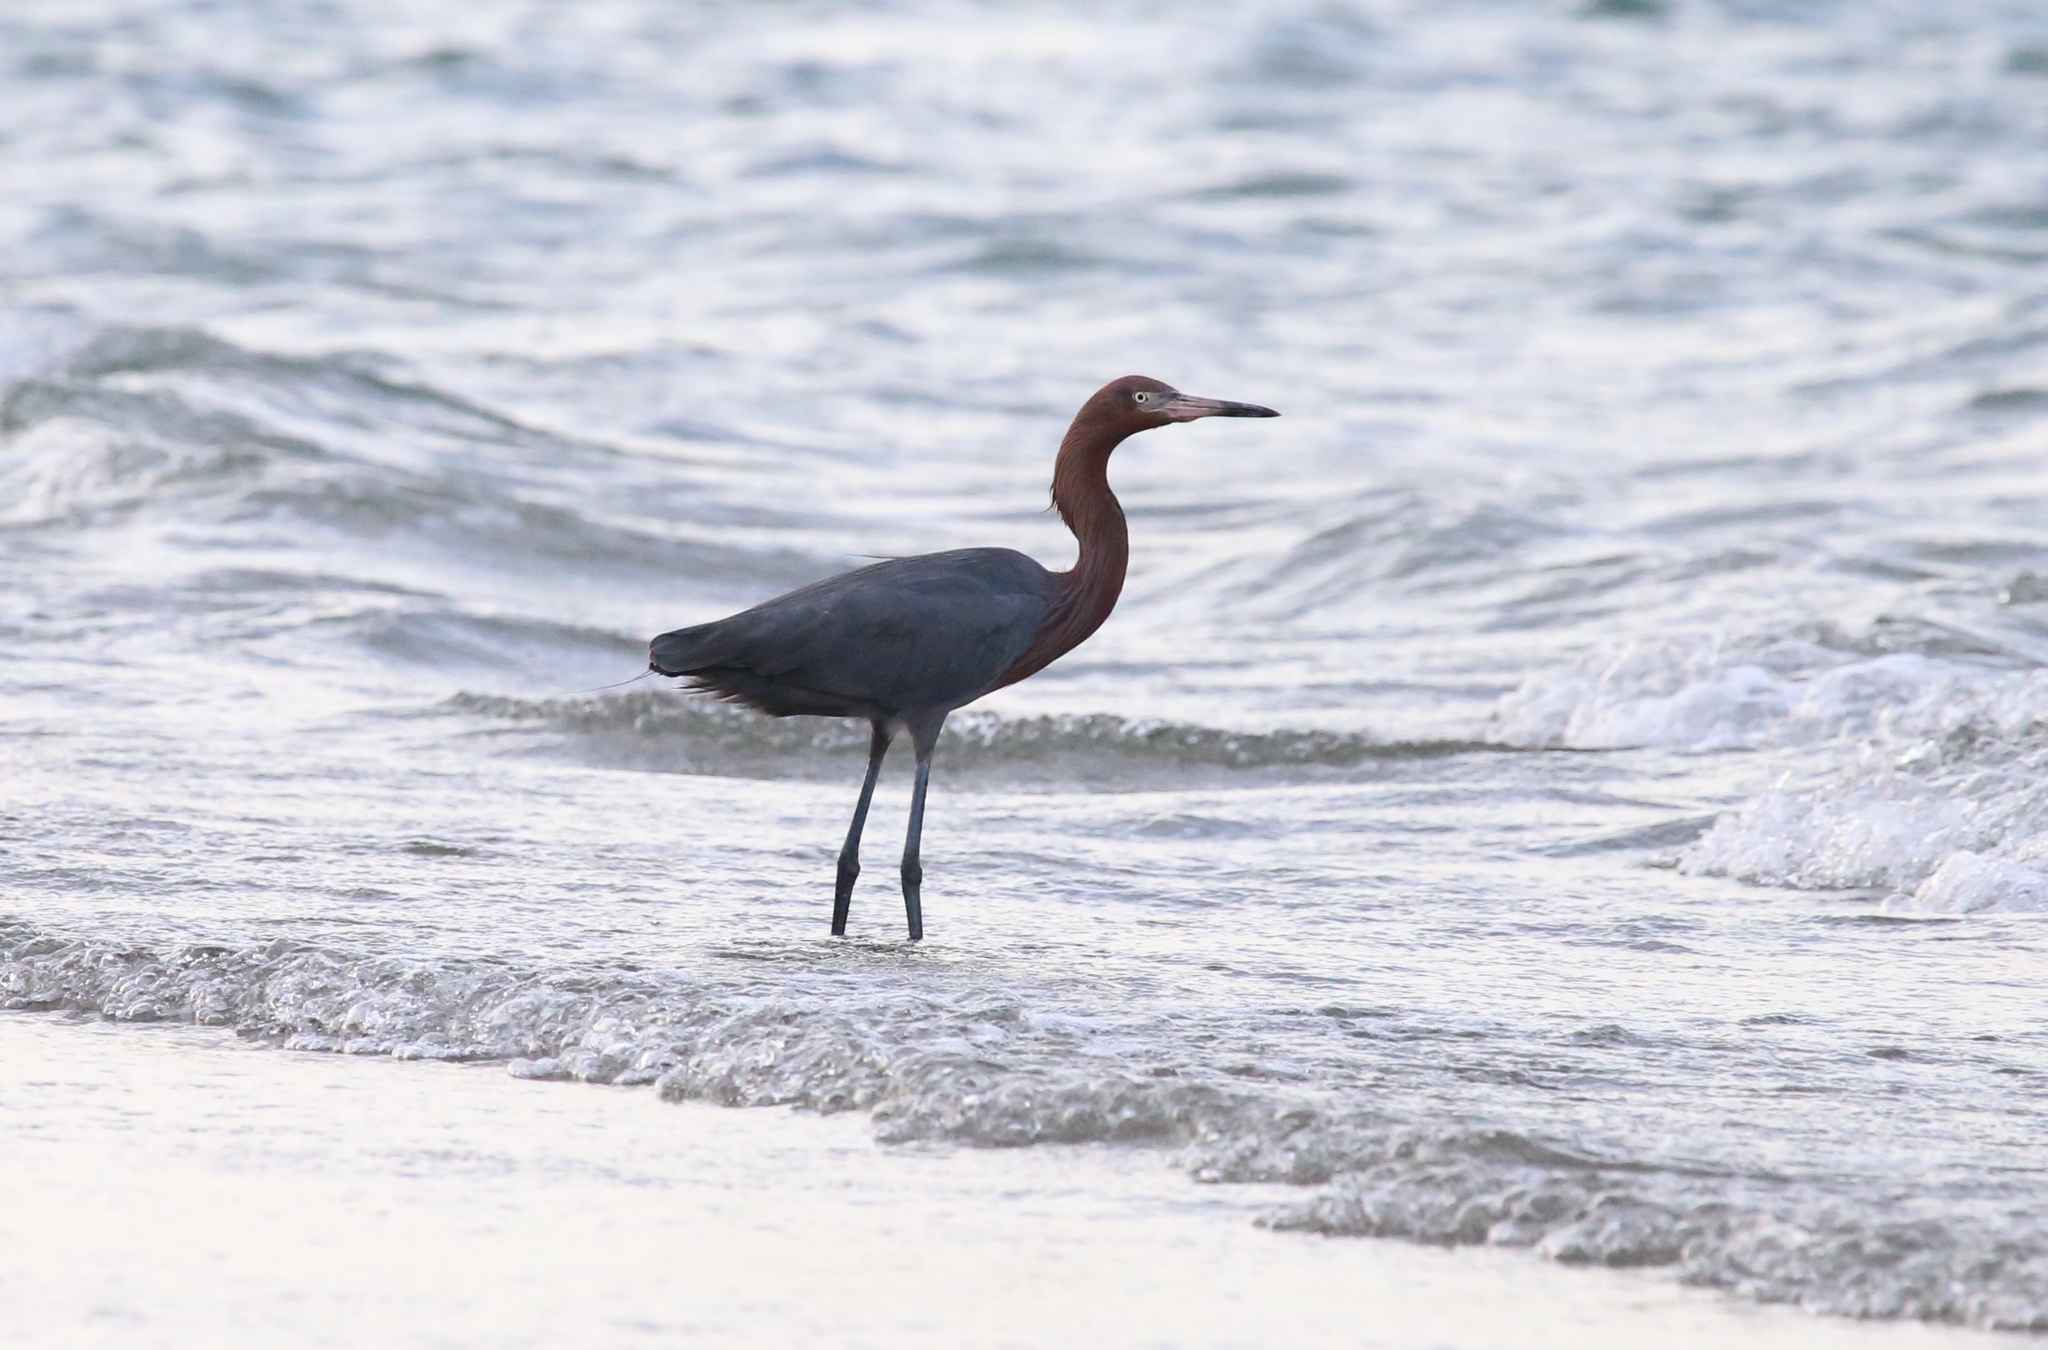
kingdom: Animalia
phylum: Chordata
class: Aves
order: Pelecaniformes
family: Ardeidae
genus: Egretta
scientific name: Egretta rufescens
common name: Reddish egret
